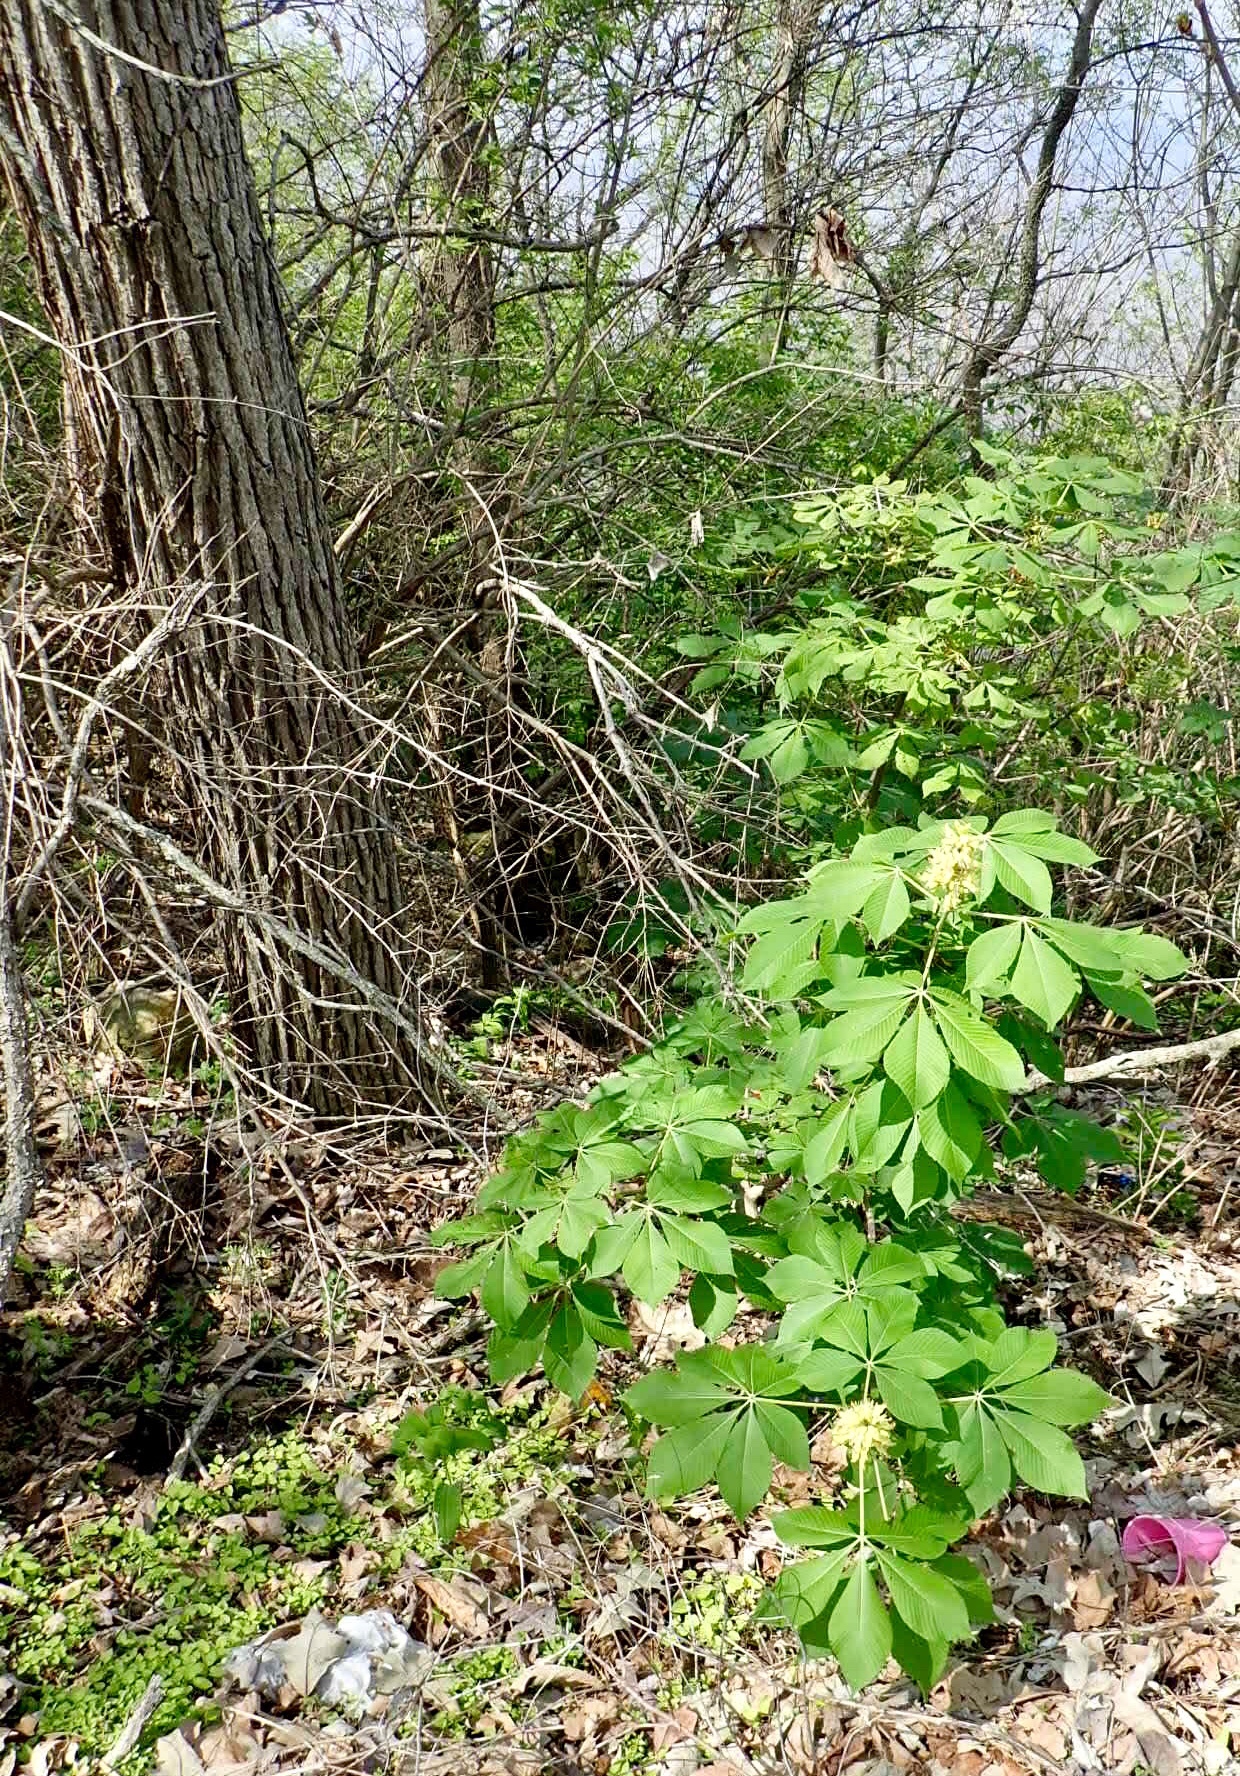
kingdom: Plantae
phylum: Tracheophyta
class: Magnoliopsida
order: Sapindales
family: Sapindaceae
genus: Aesculus
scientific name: Aesculus glabra
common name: Ohio buckeye
